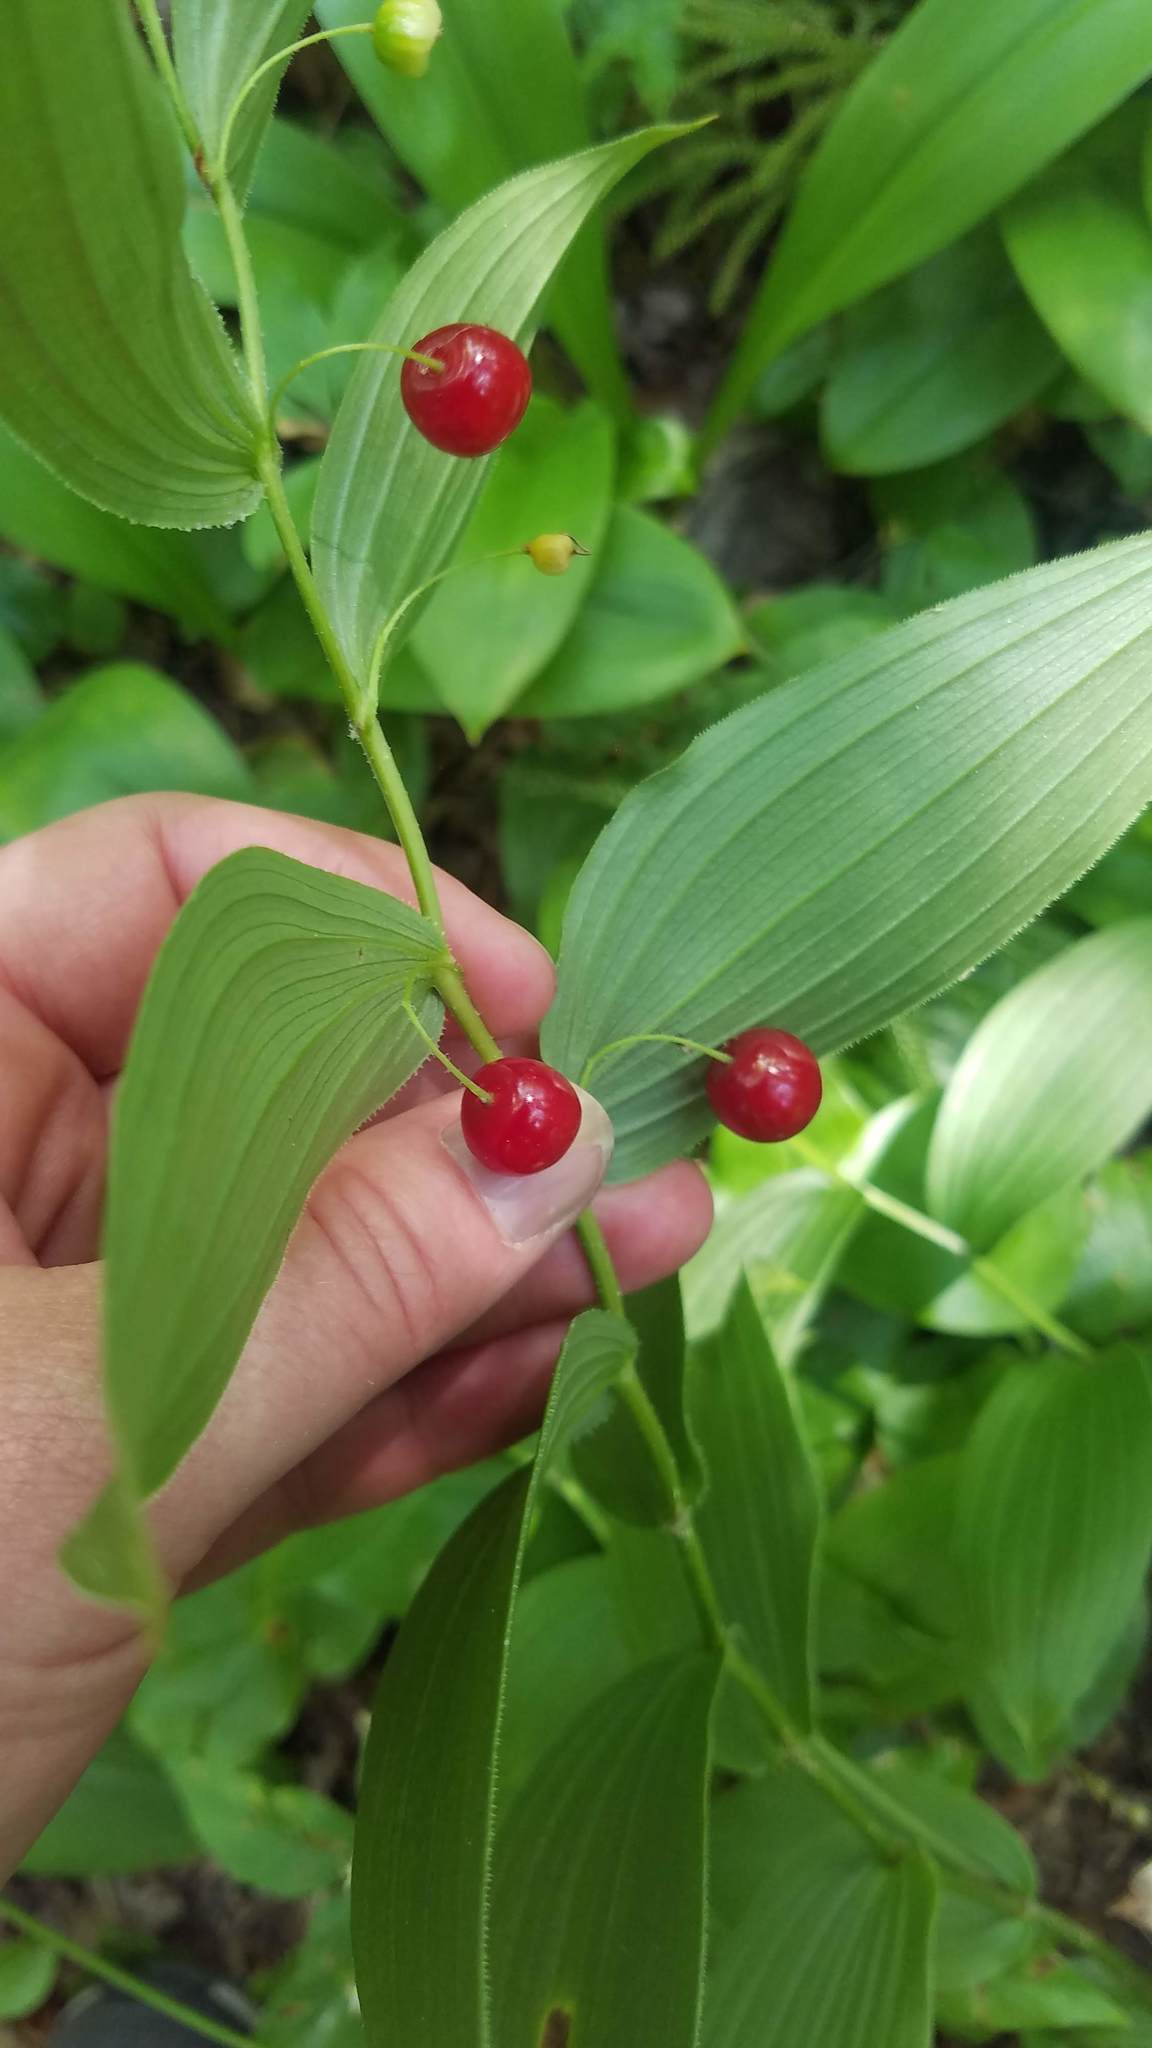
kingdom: Plantae
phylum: Tracheophyta
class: Liliopsida
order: Liliales
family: Liliaceae
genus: Streptopus
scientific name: Streptopus lanceolatus
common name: Rose mandarin
